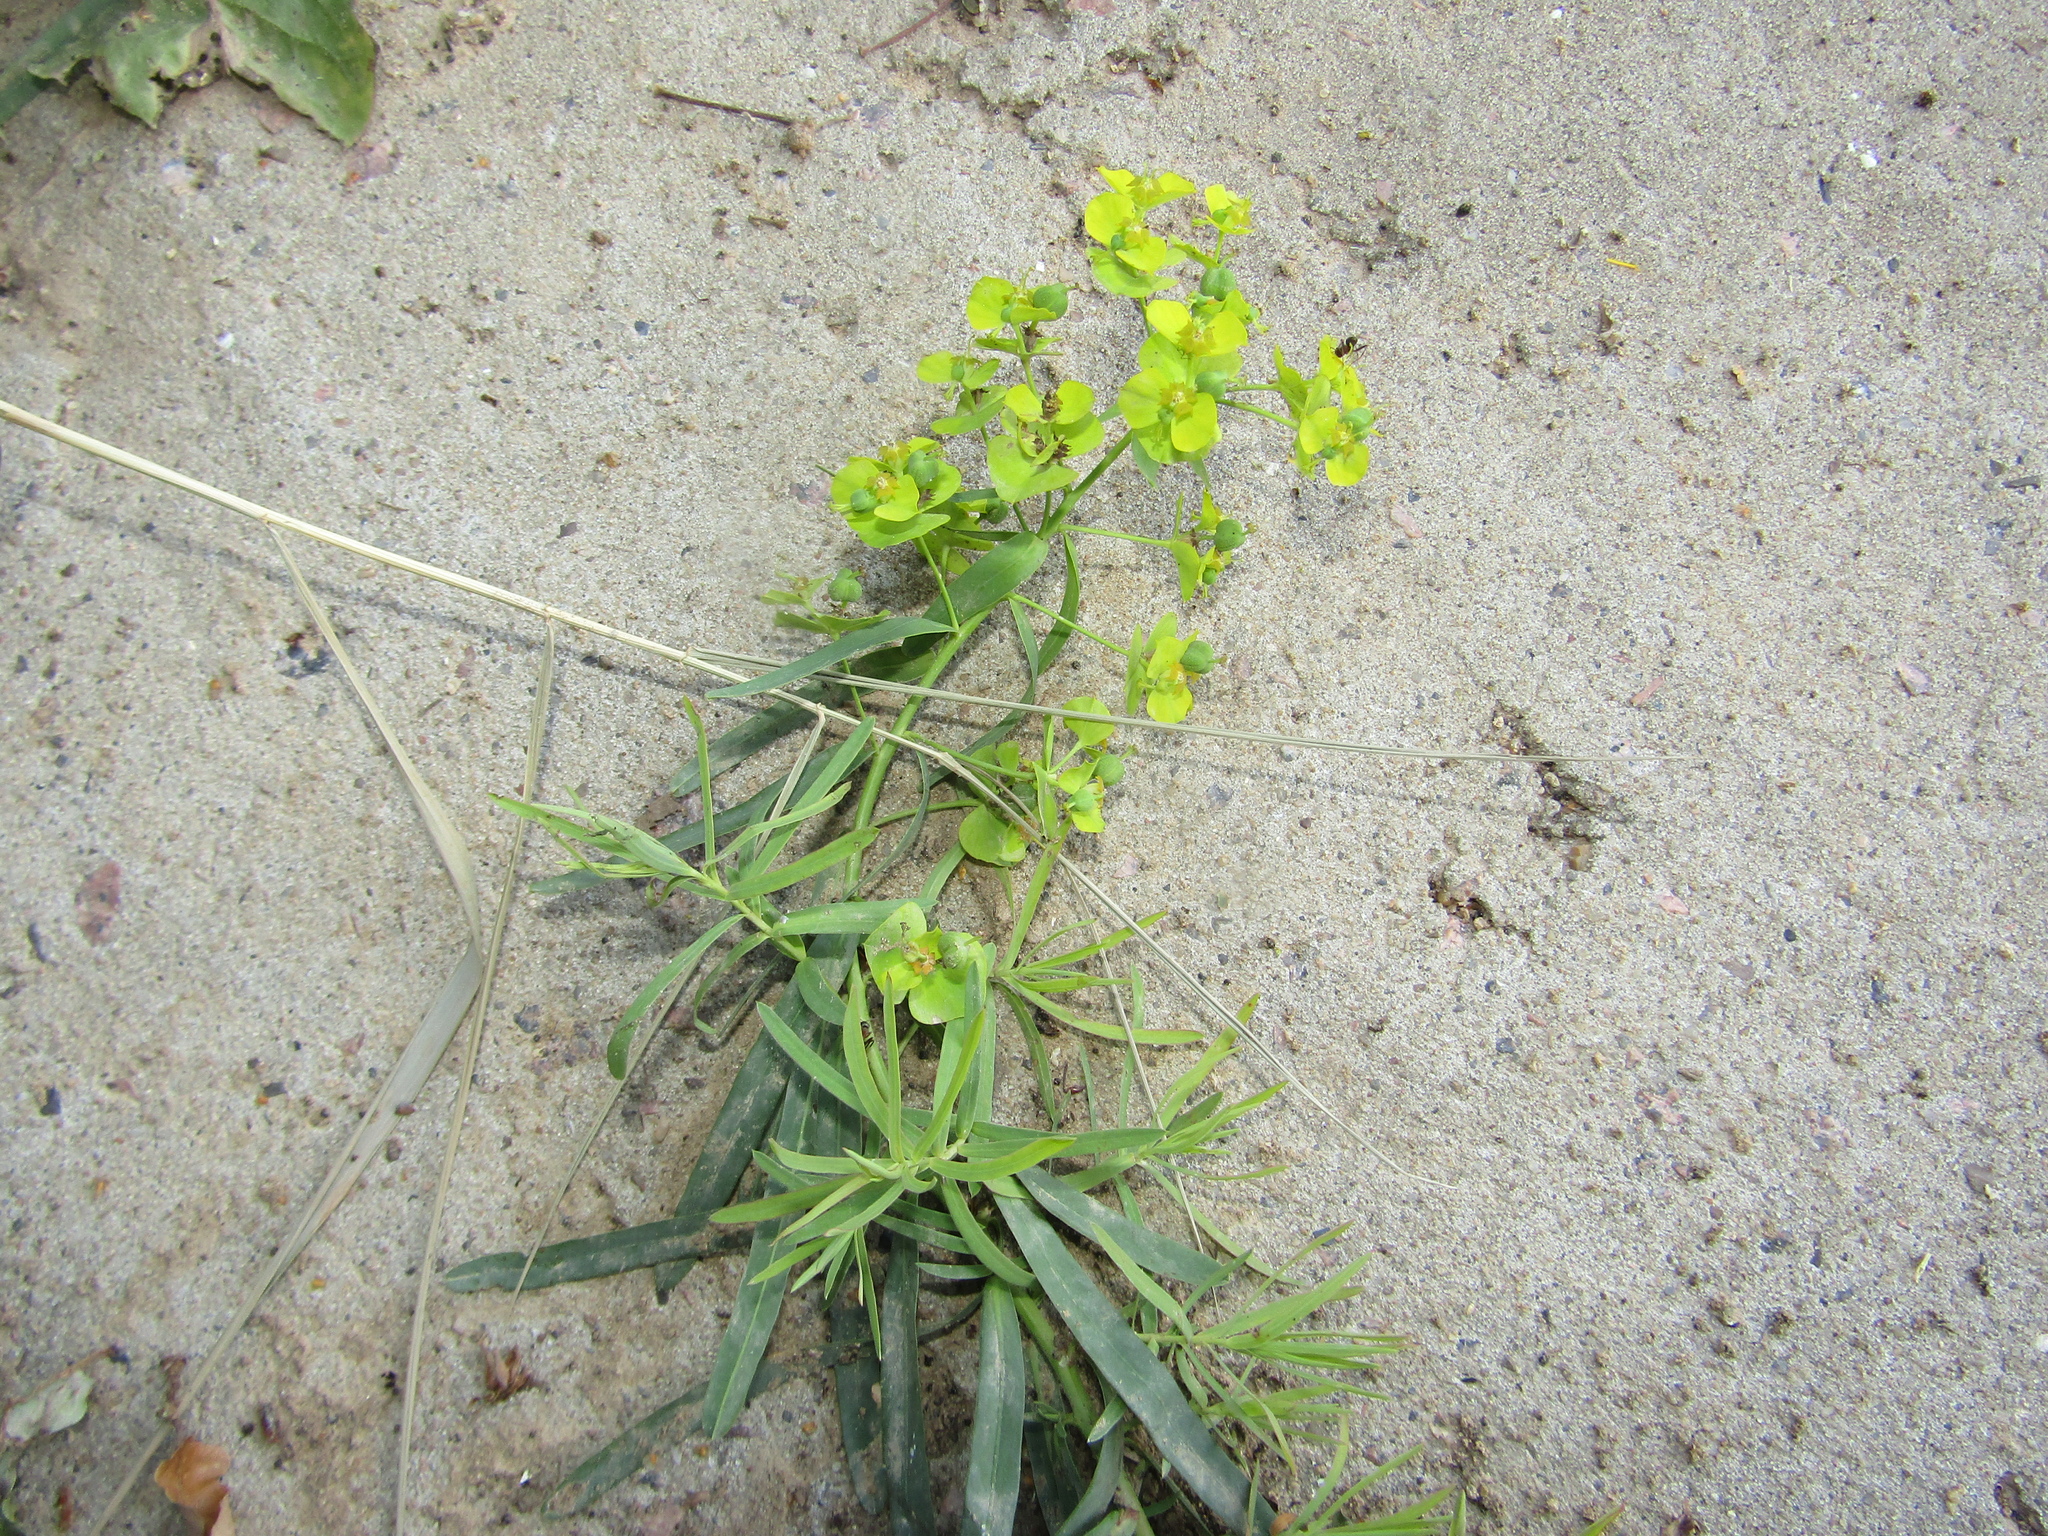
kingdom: Plantae
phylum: Tracheophyta
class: Magnoliopsida
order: Malpighiales
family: Euphorbiaceae
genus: Euphorbia
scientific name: Euphorbia virgata
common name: Leafy spurge
